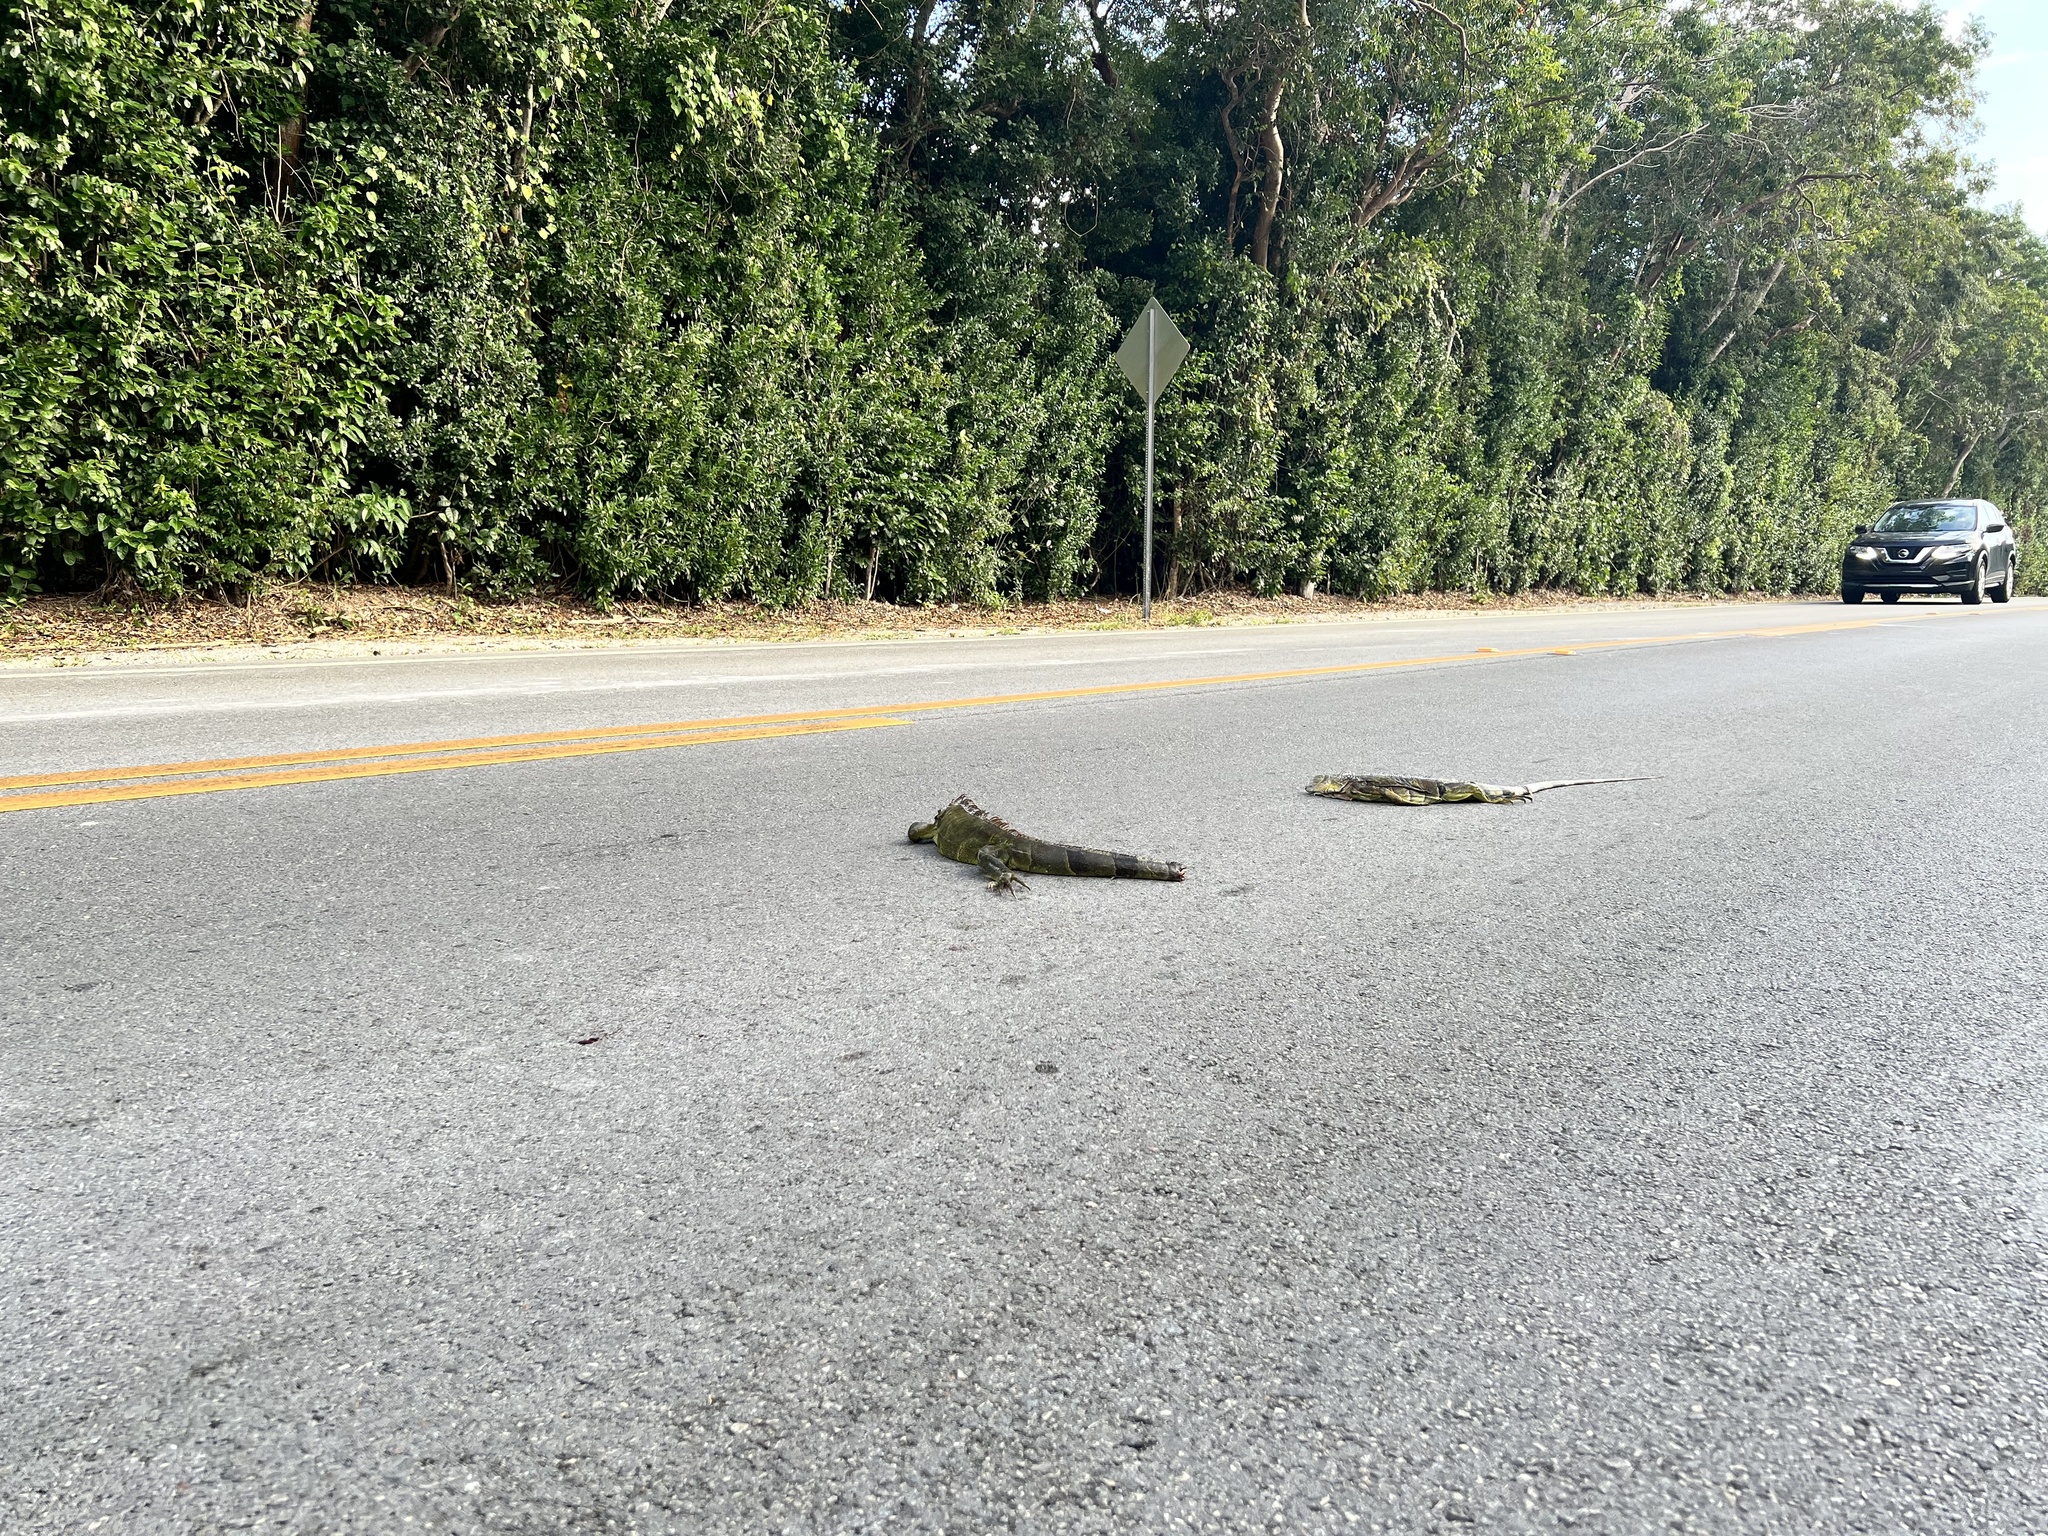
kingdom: Animalia
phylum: Chordata
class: Squamata
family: Iguanidae
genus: Iguana
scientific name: Iguana iguana
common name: Green iguana
